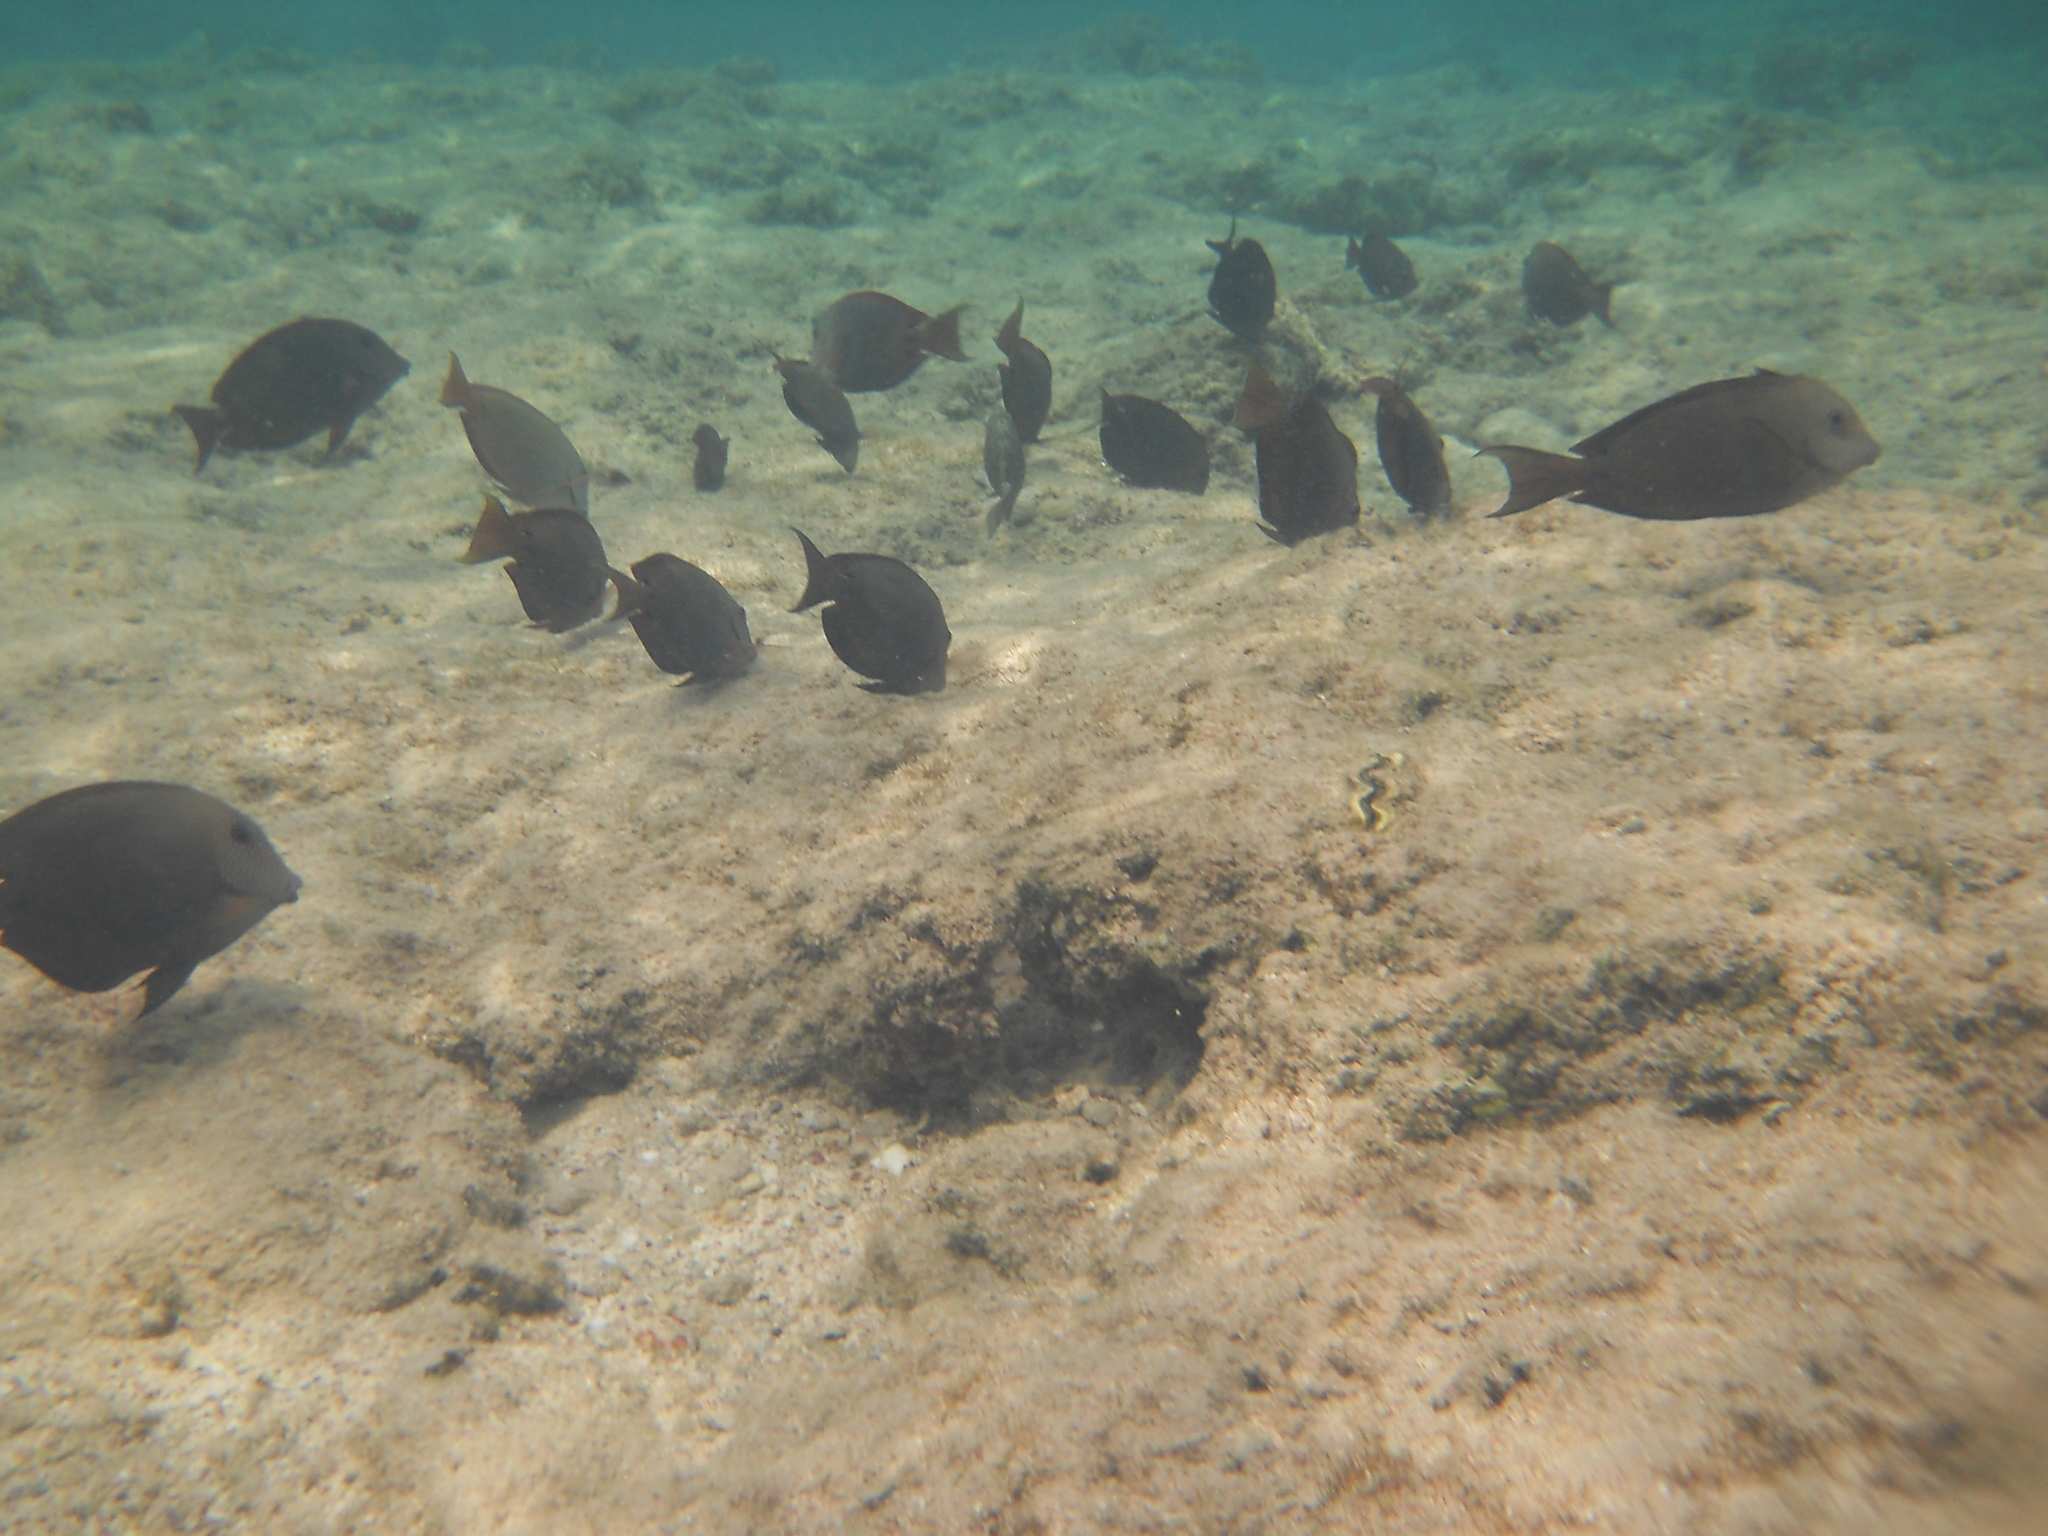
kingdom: Animalia
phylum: Chordata
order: Perciformes
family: Acanthuridae
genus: Acanthurus
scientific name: Acanthurus nigrofuscus
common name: Blackspot surgeonfish
